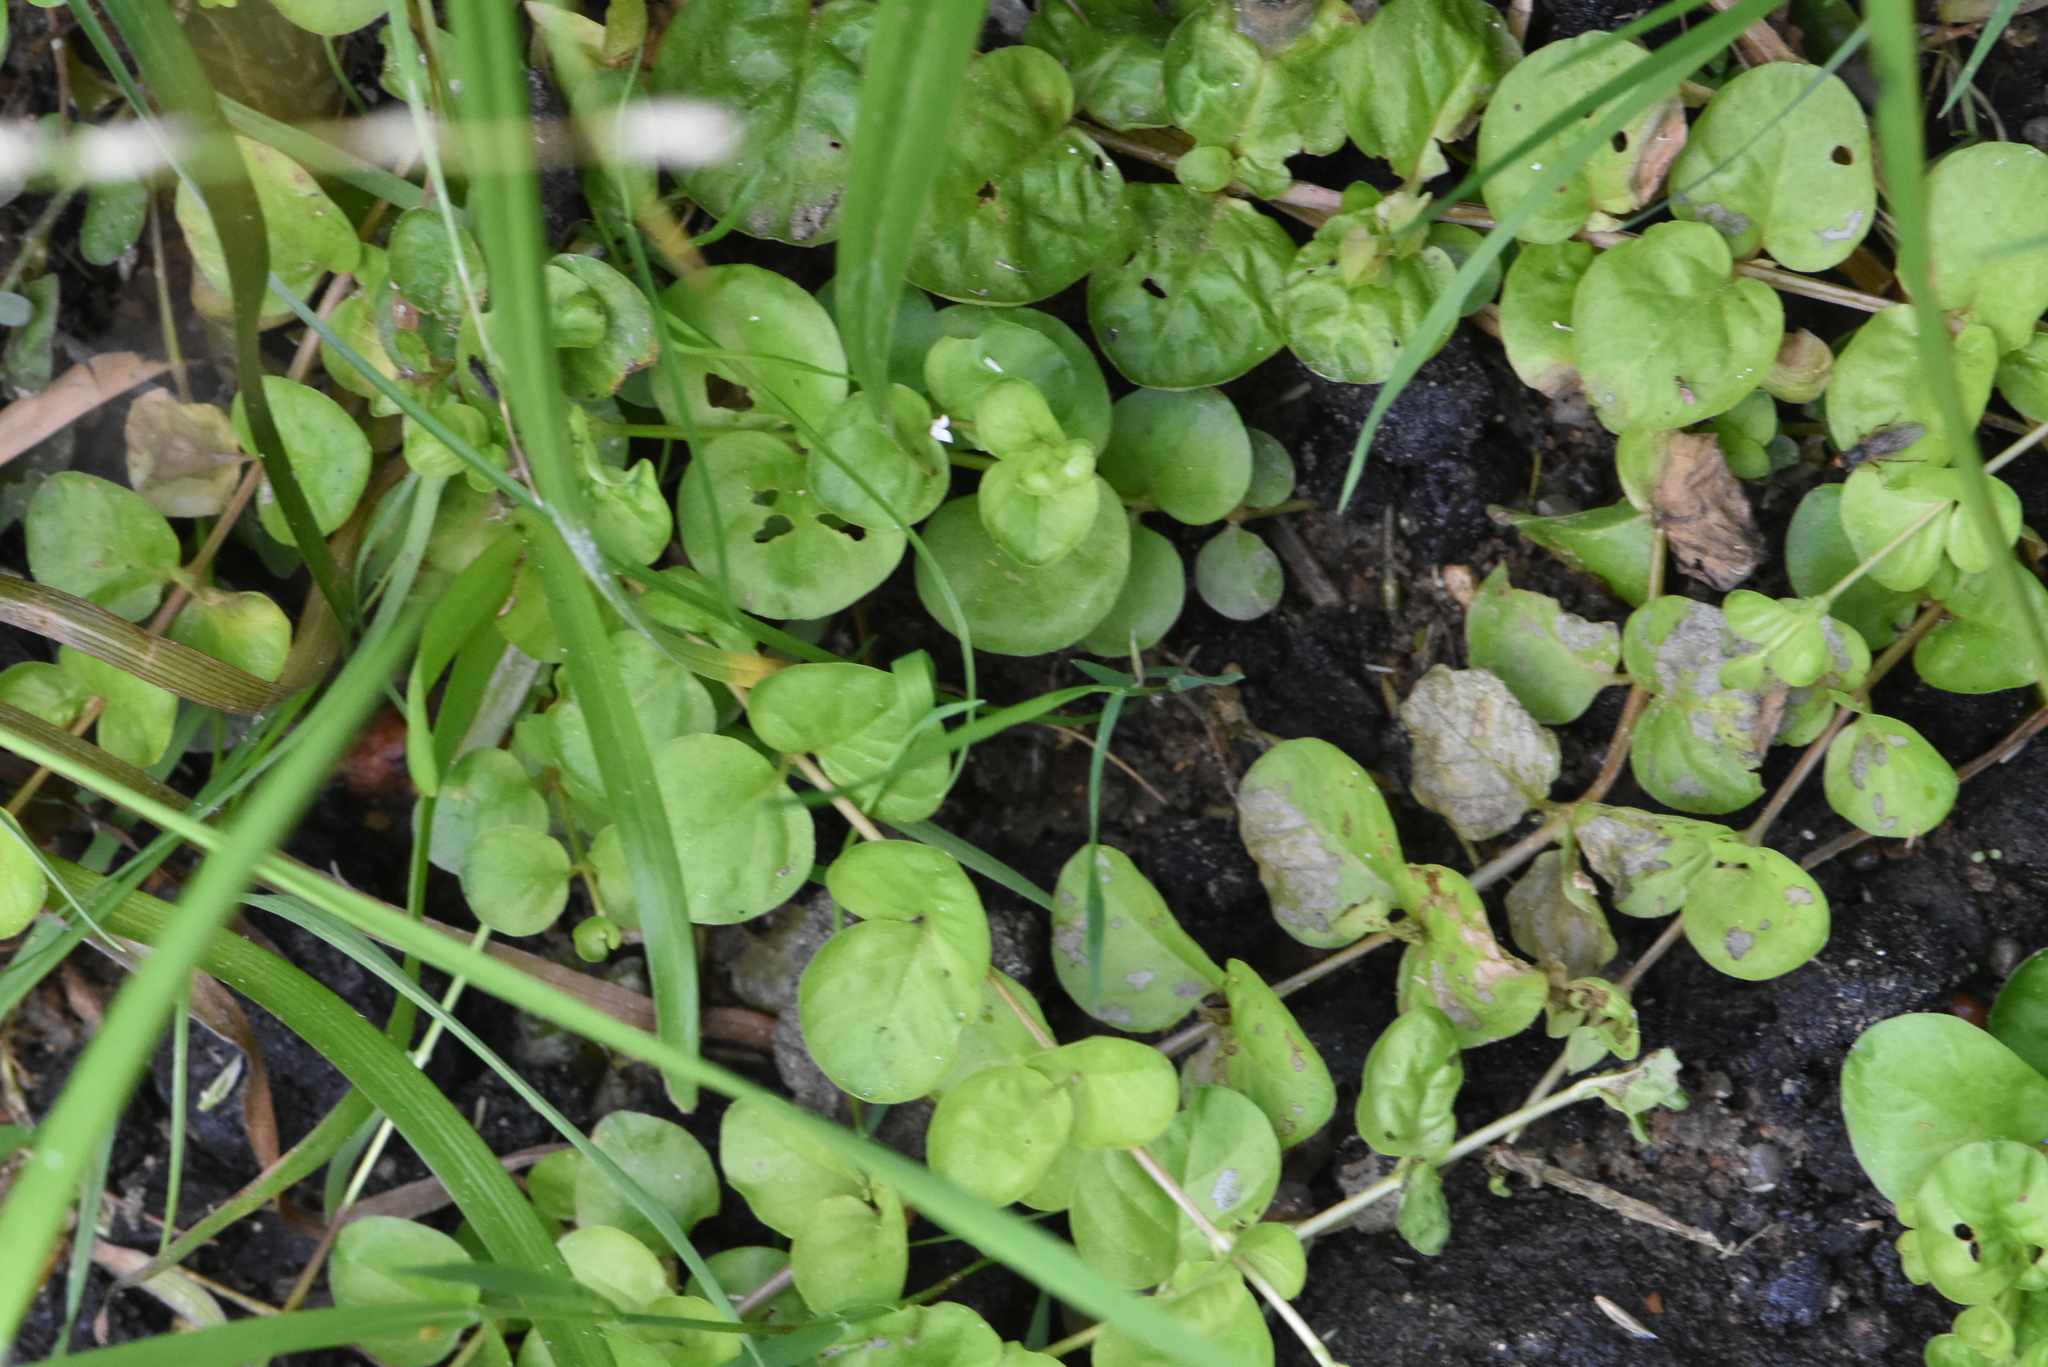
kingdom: Plantae
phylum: Tracheophyta
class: Magnoliopsida
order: Ericales
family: Primulaceae
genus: Lysimachia
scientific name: Lysimachia nummularia
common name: Moneywort
